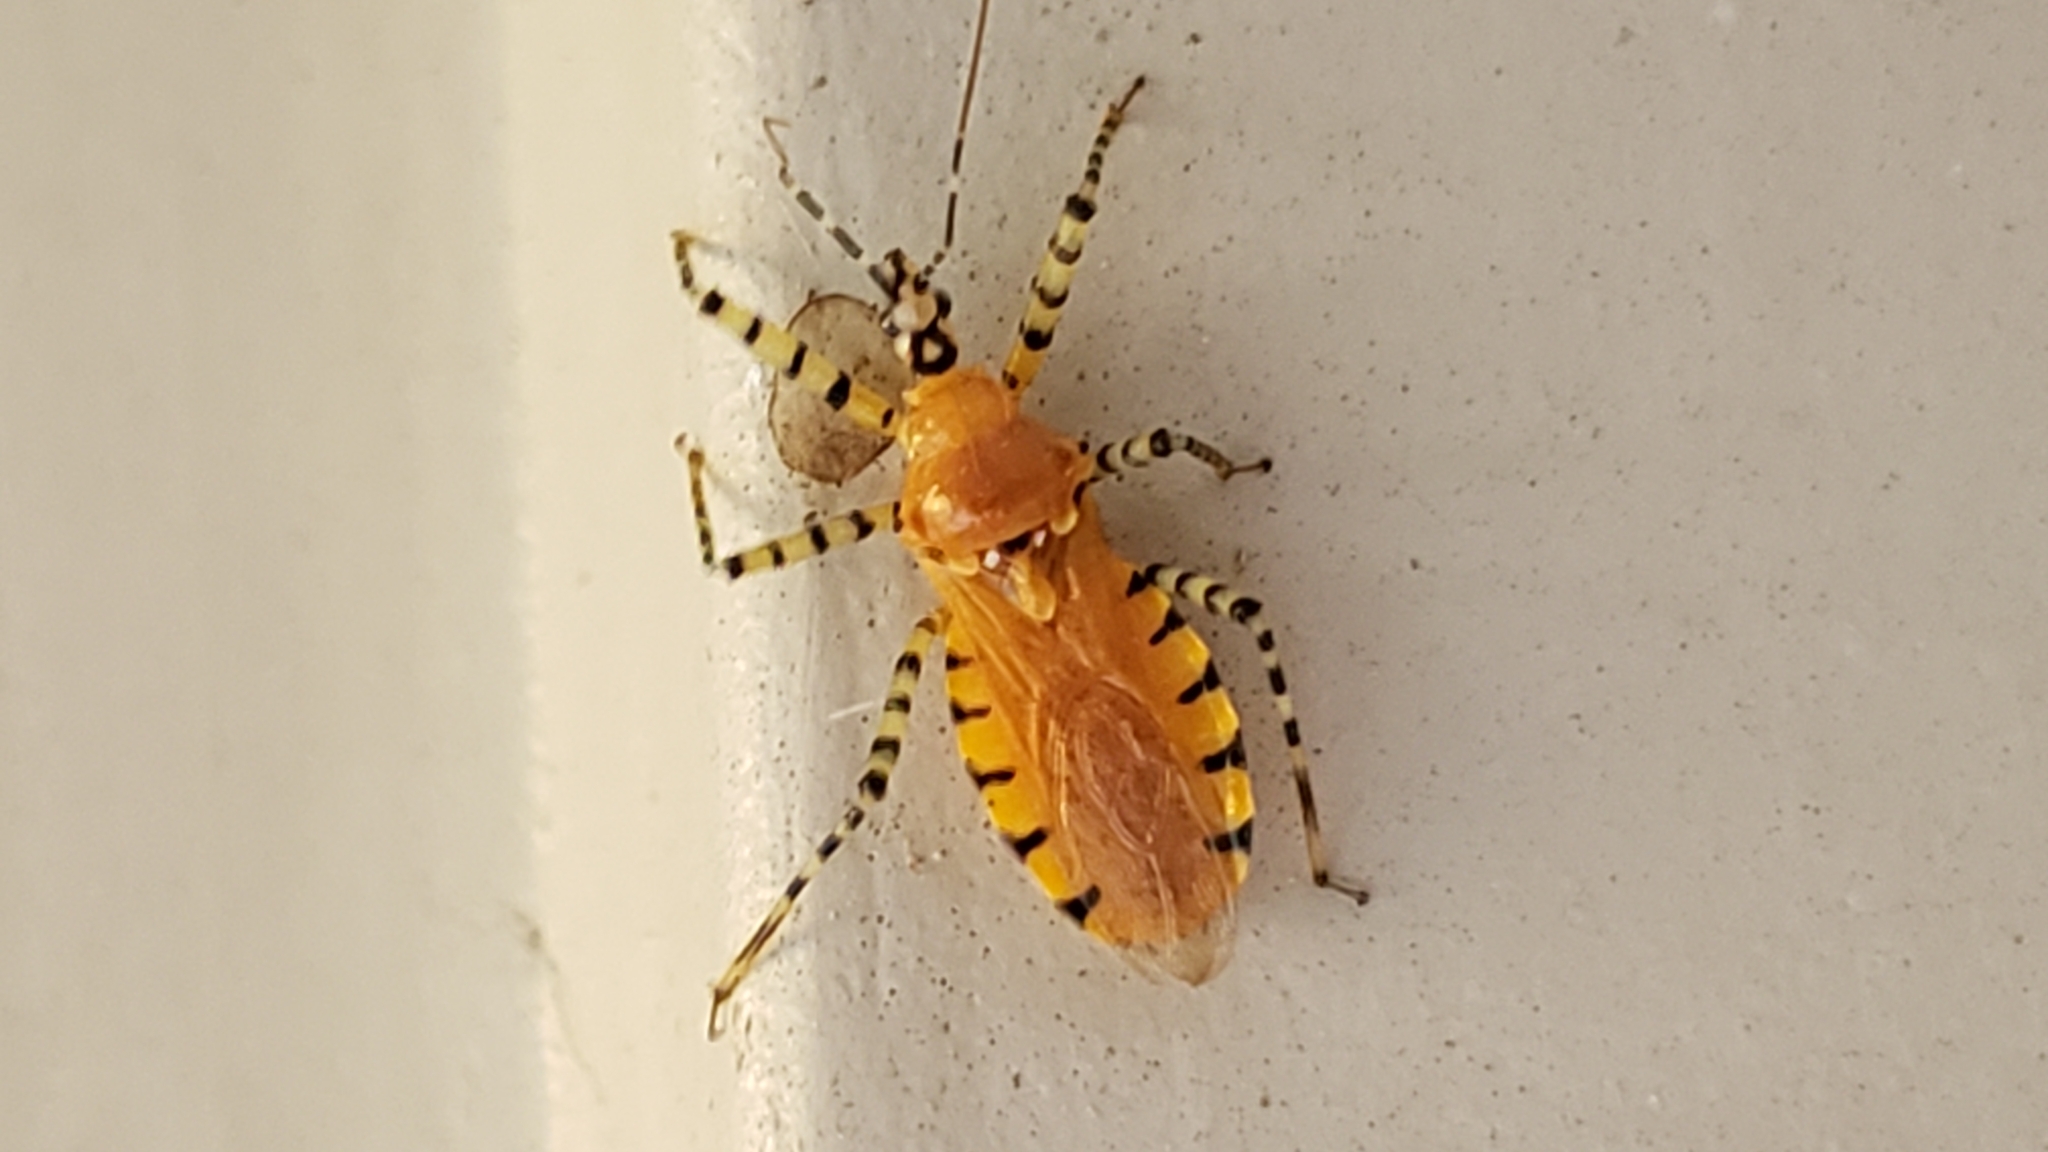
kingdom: Animalia
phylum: Arthropoda
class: Insecta
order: Hemiptera
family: Reduviidae
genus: Pselliopus
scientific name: Pselliopus barberi
